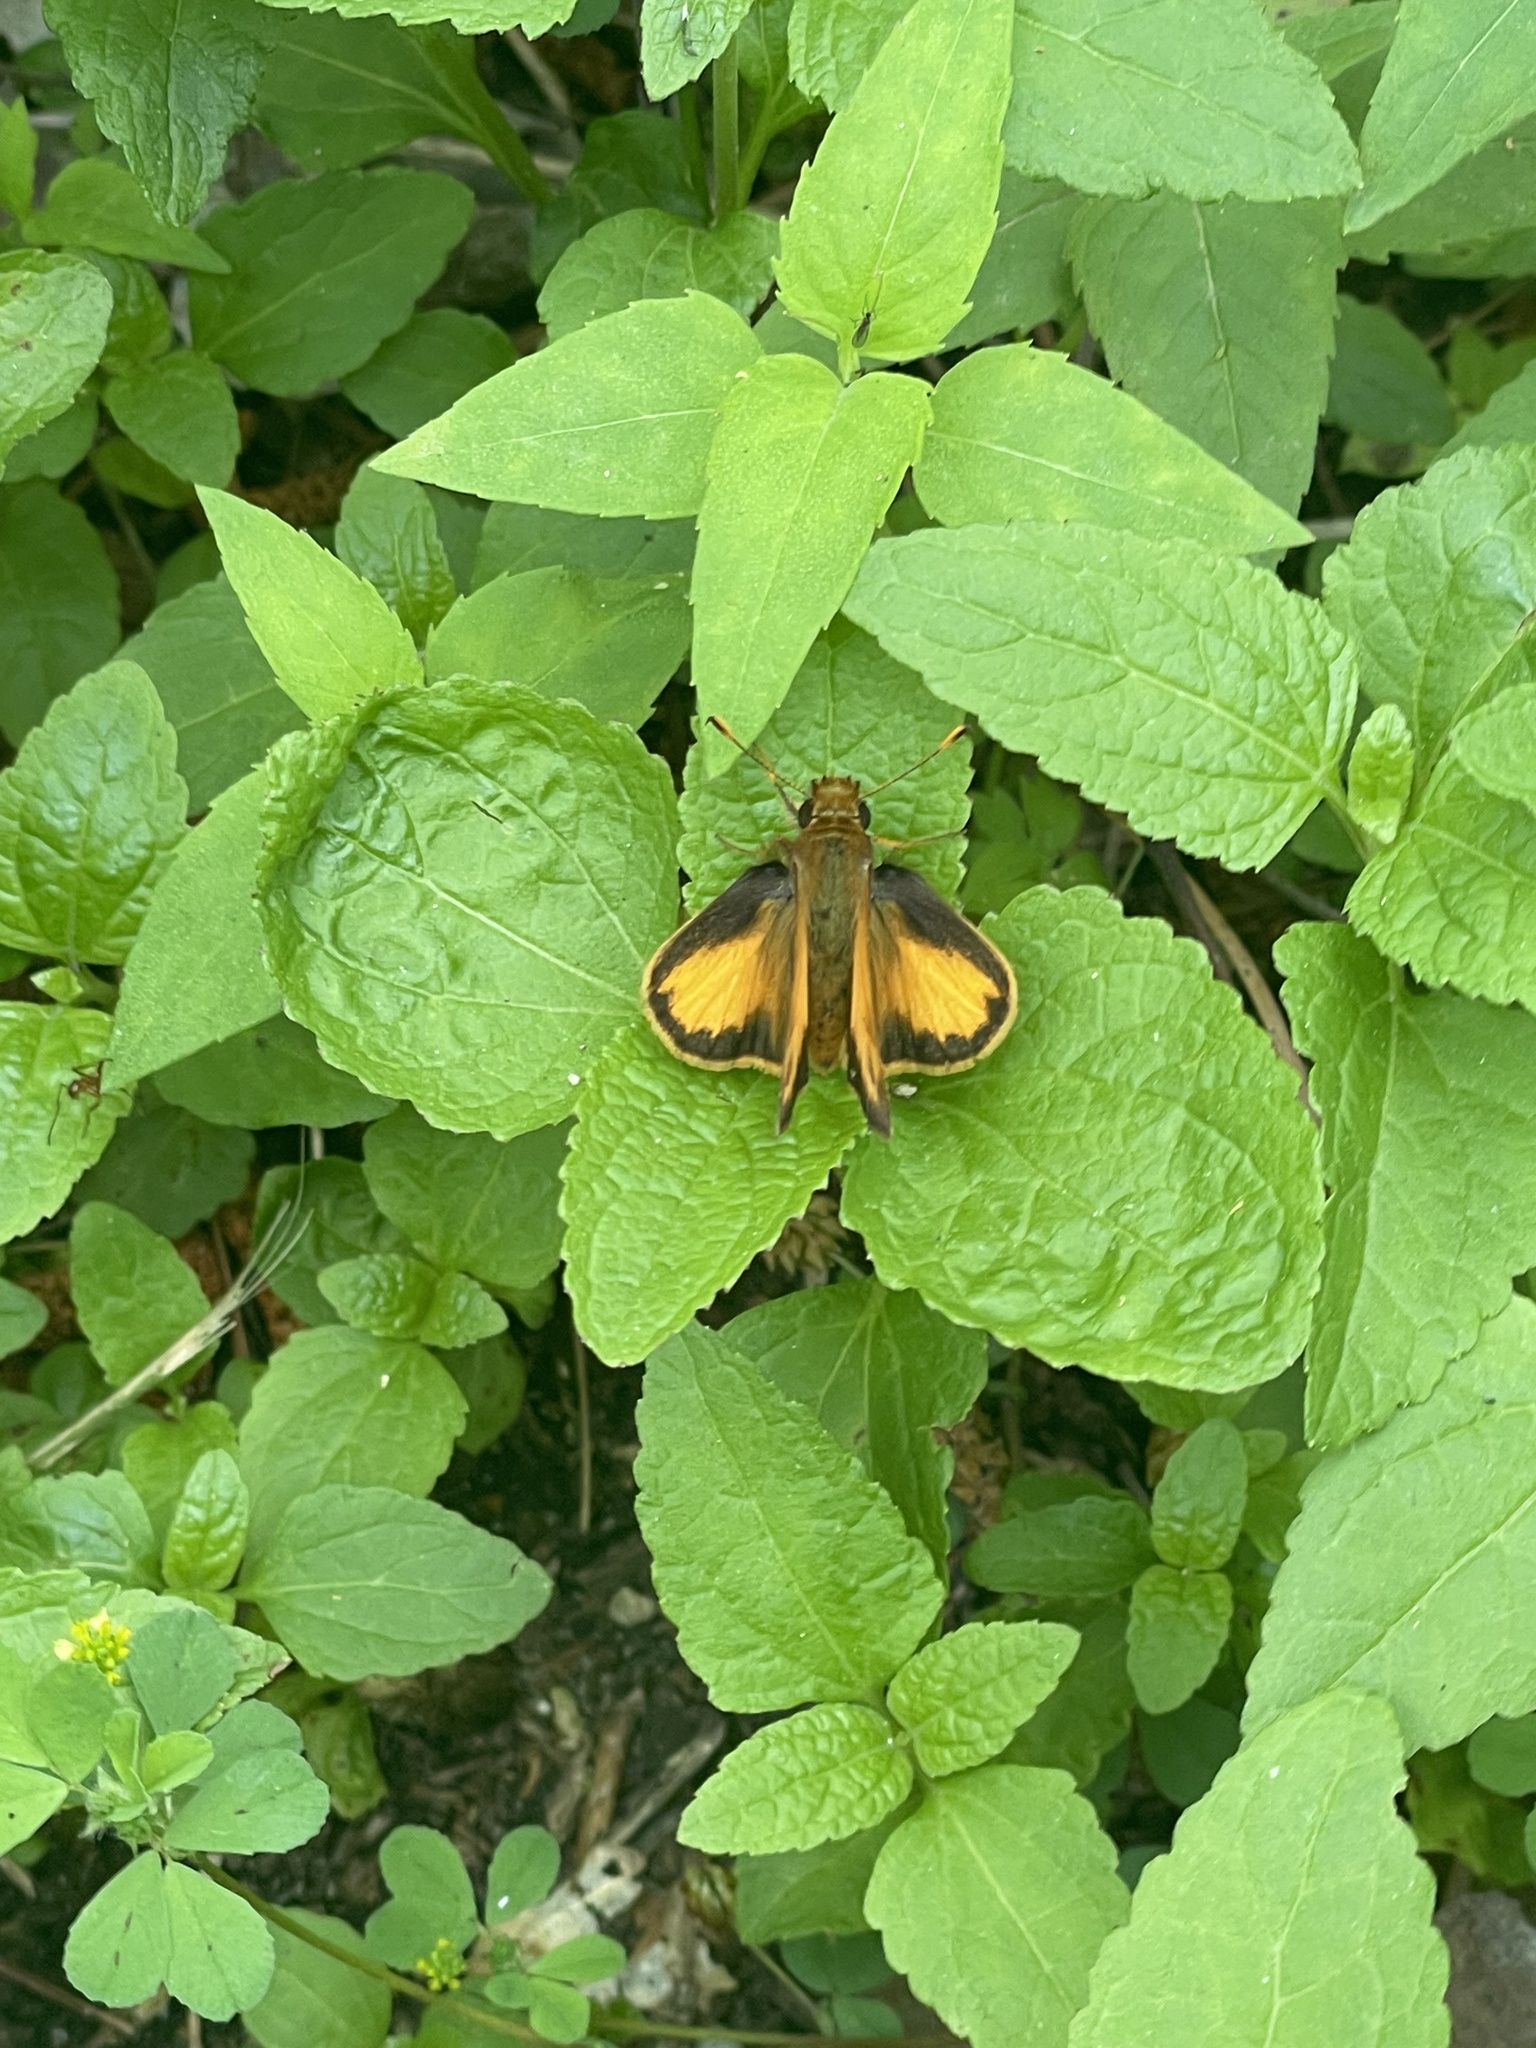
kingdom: Animalia
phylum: Arthropoda
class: Insecta
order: Lepidoptera
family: Hesperiidae
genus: Lon
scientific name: Lon zabulon
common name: Zabulon skipper
